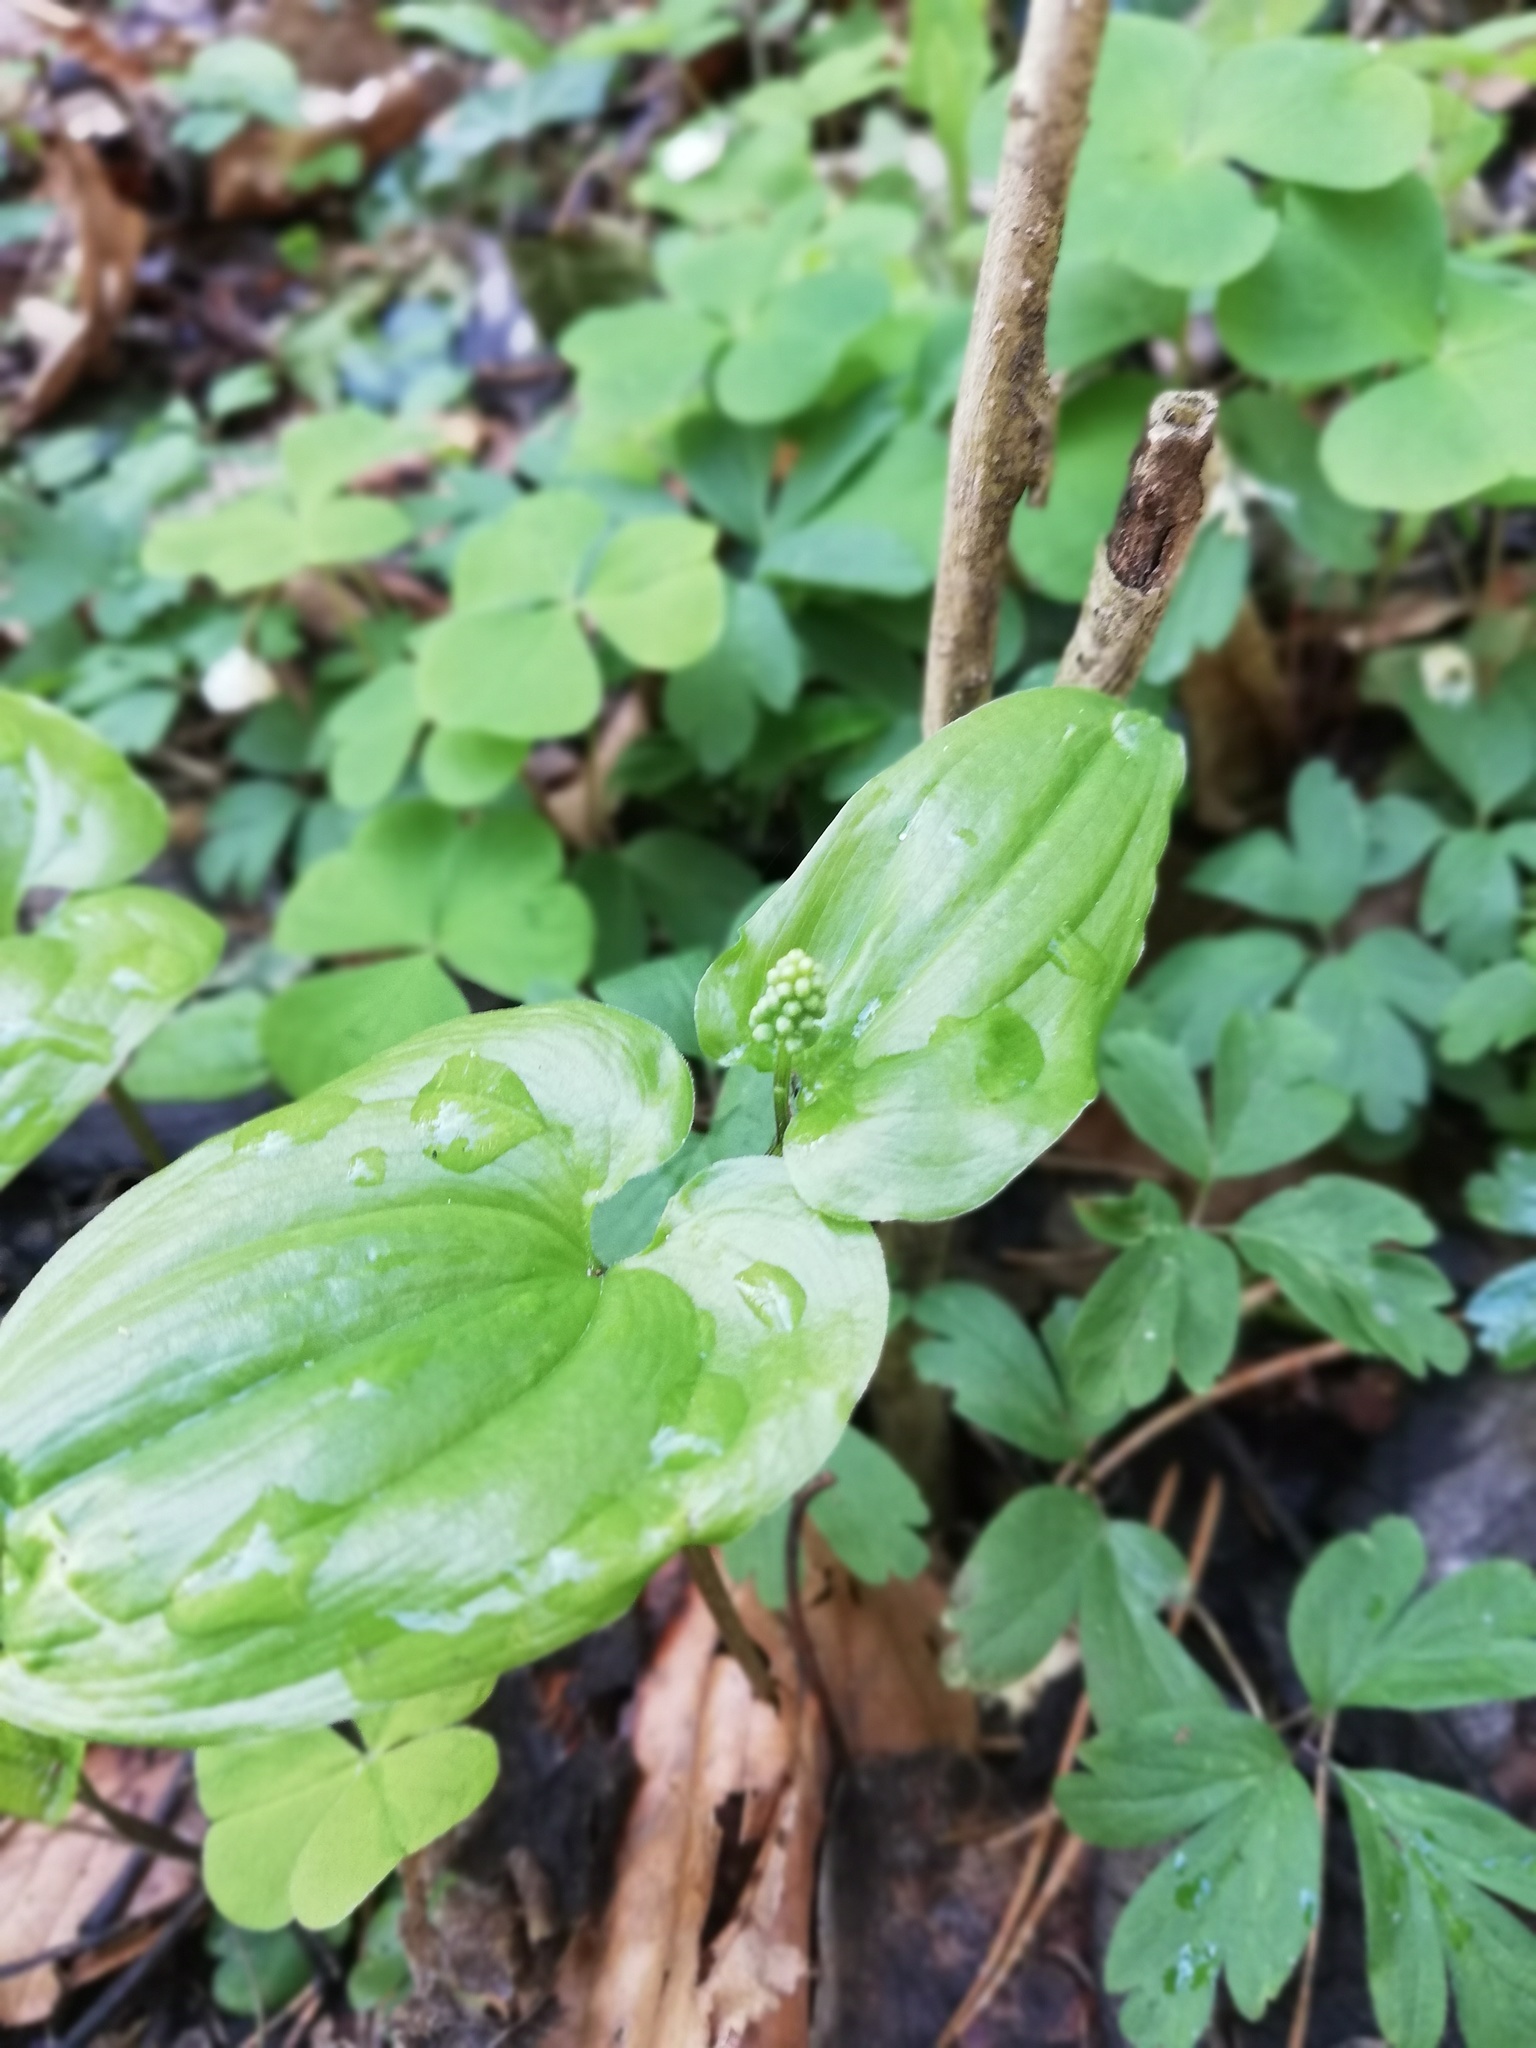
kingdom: Plantae
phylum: Tracheophyta
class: Liliopsida
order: Asparagales
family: Asparagaceae
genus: Maianthemum
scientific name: Maianthemum bifolium
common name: May lily
